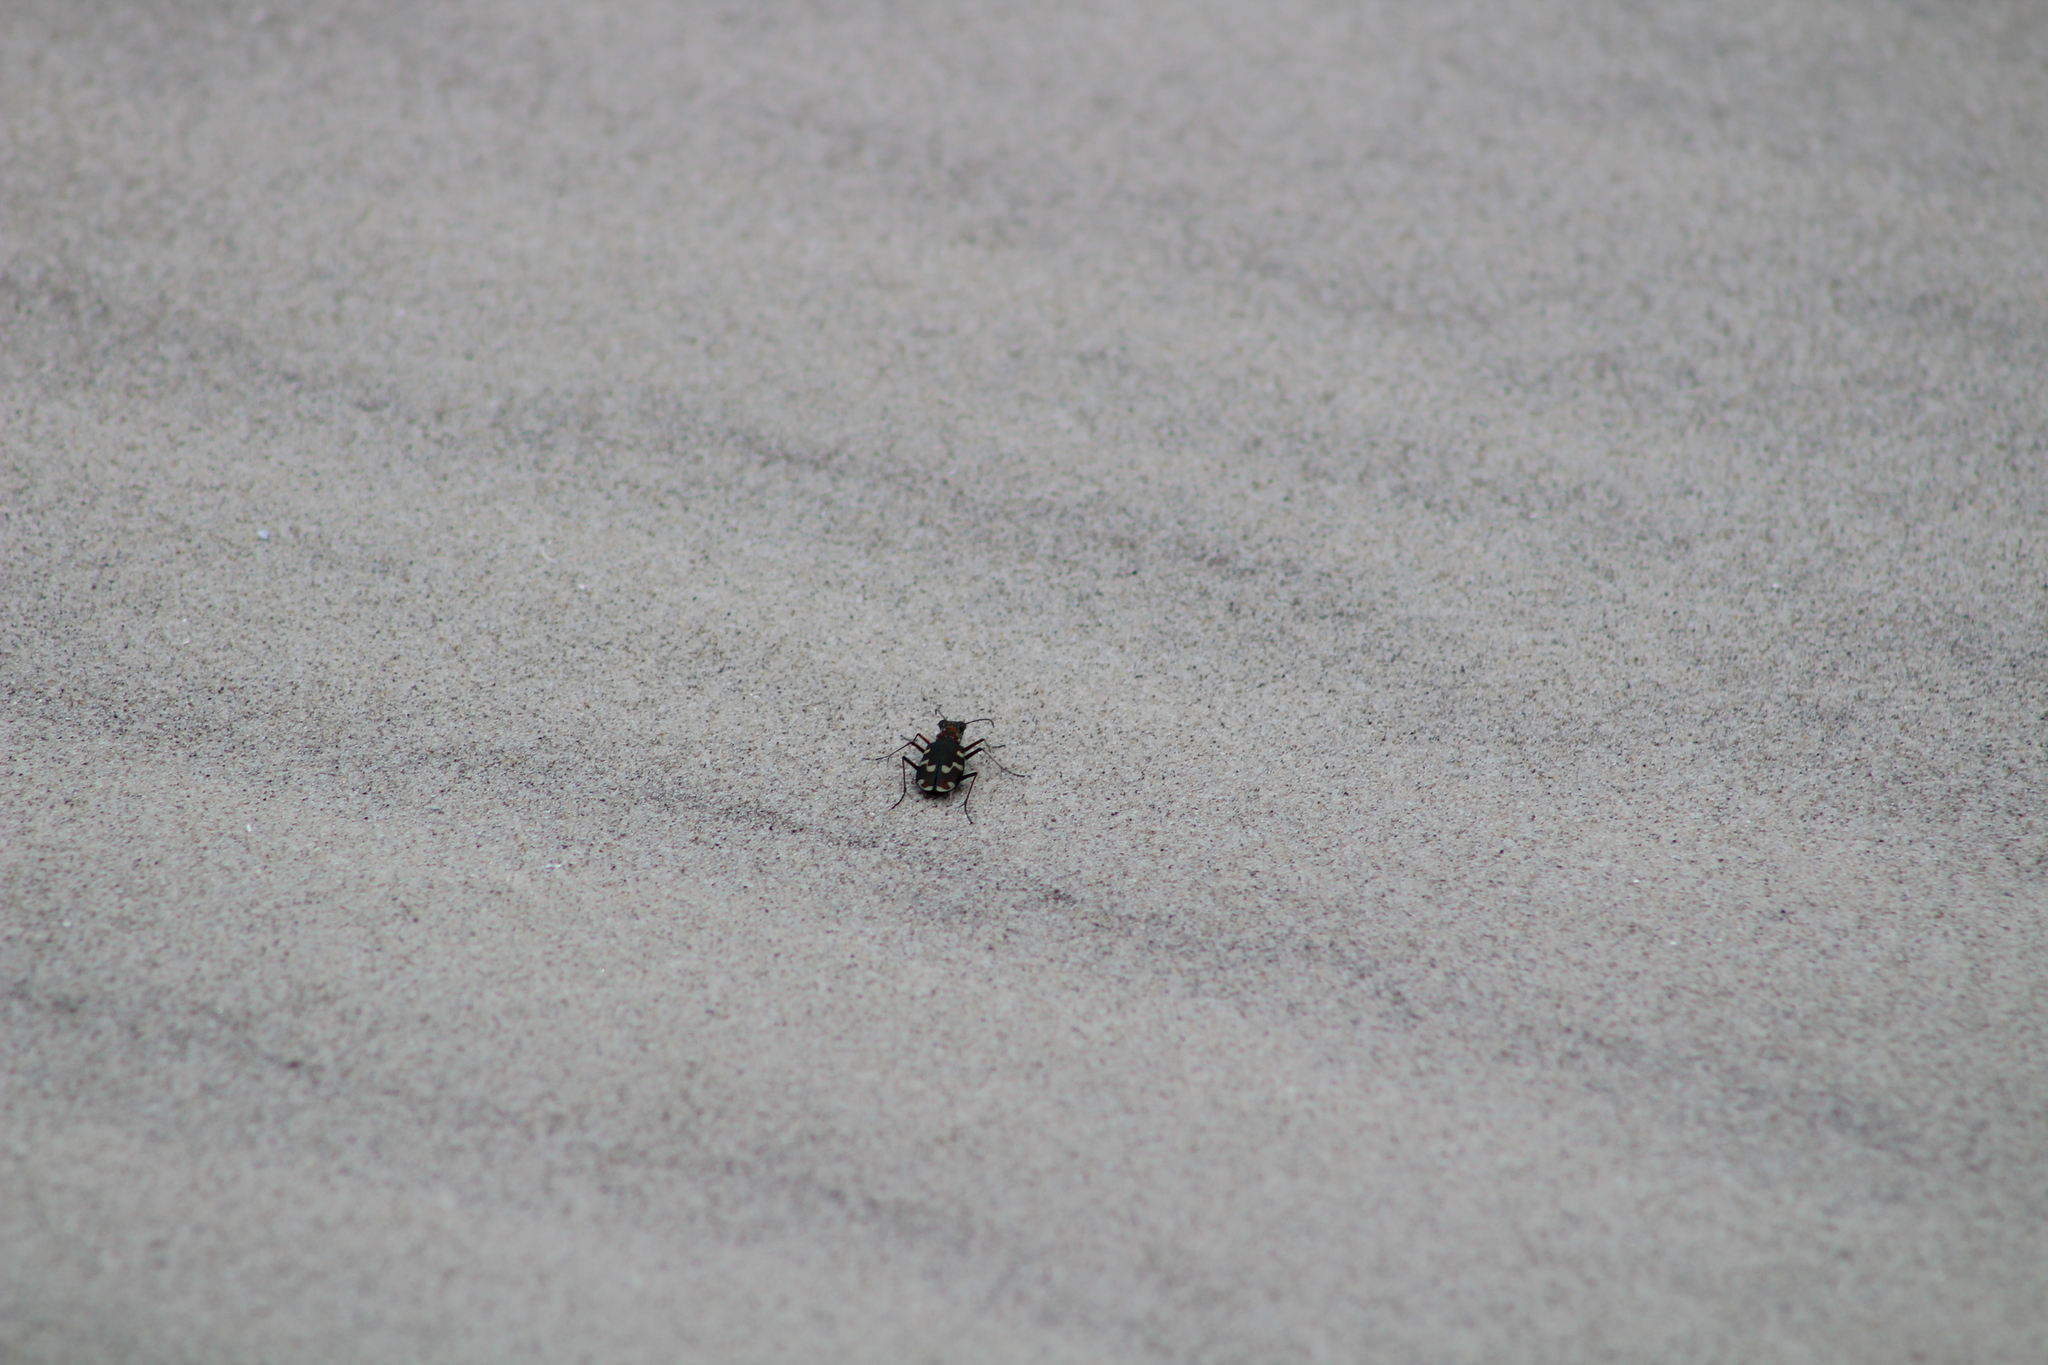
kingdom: Animalia
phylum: Arthropoda
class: Insecta
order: Coleoptera
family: Carabidae
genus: Cicindela
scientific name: Cicindela maritima
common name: Dune tiger beetle
